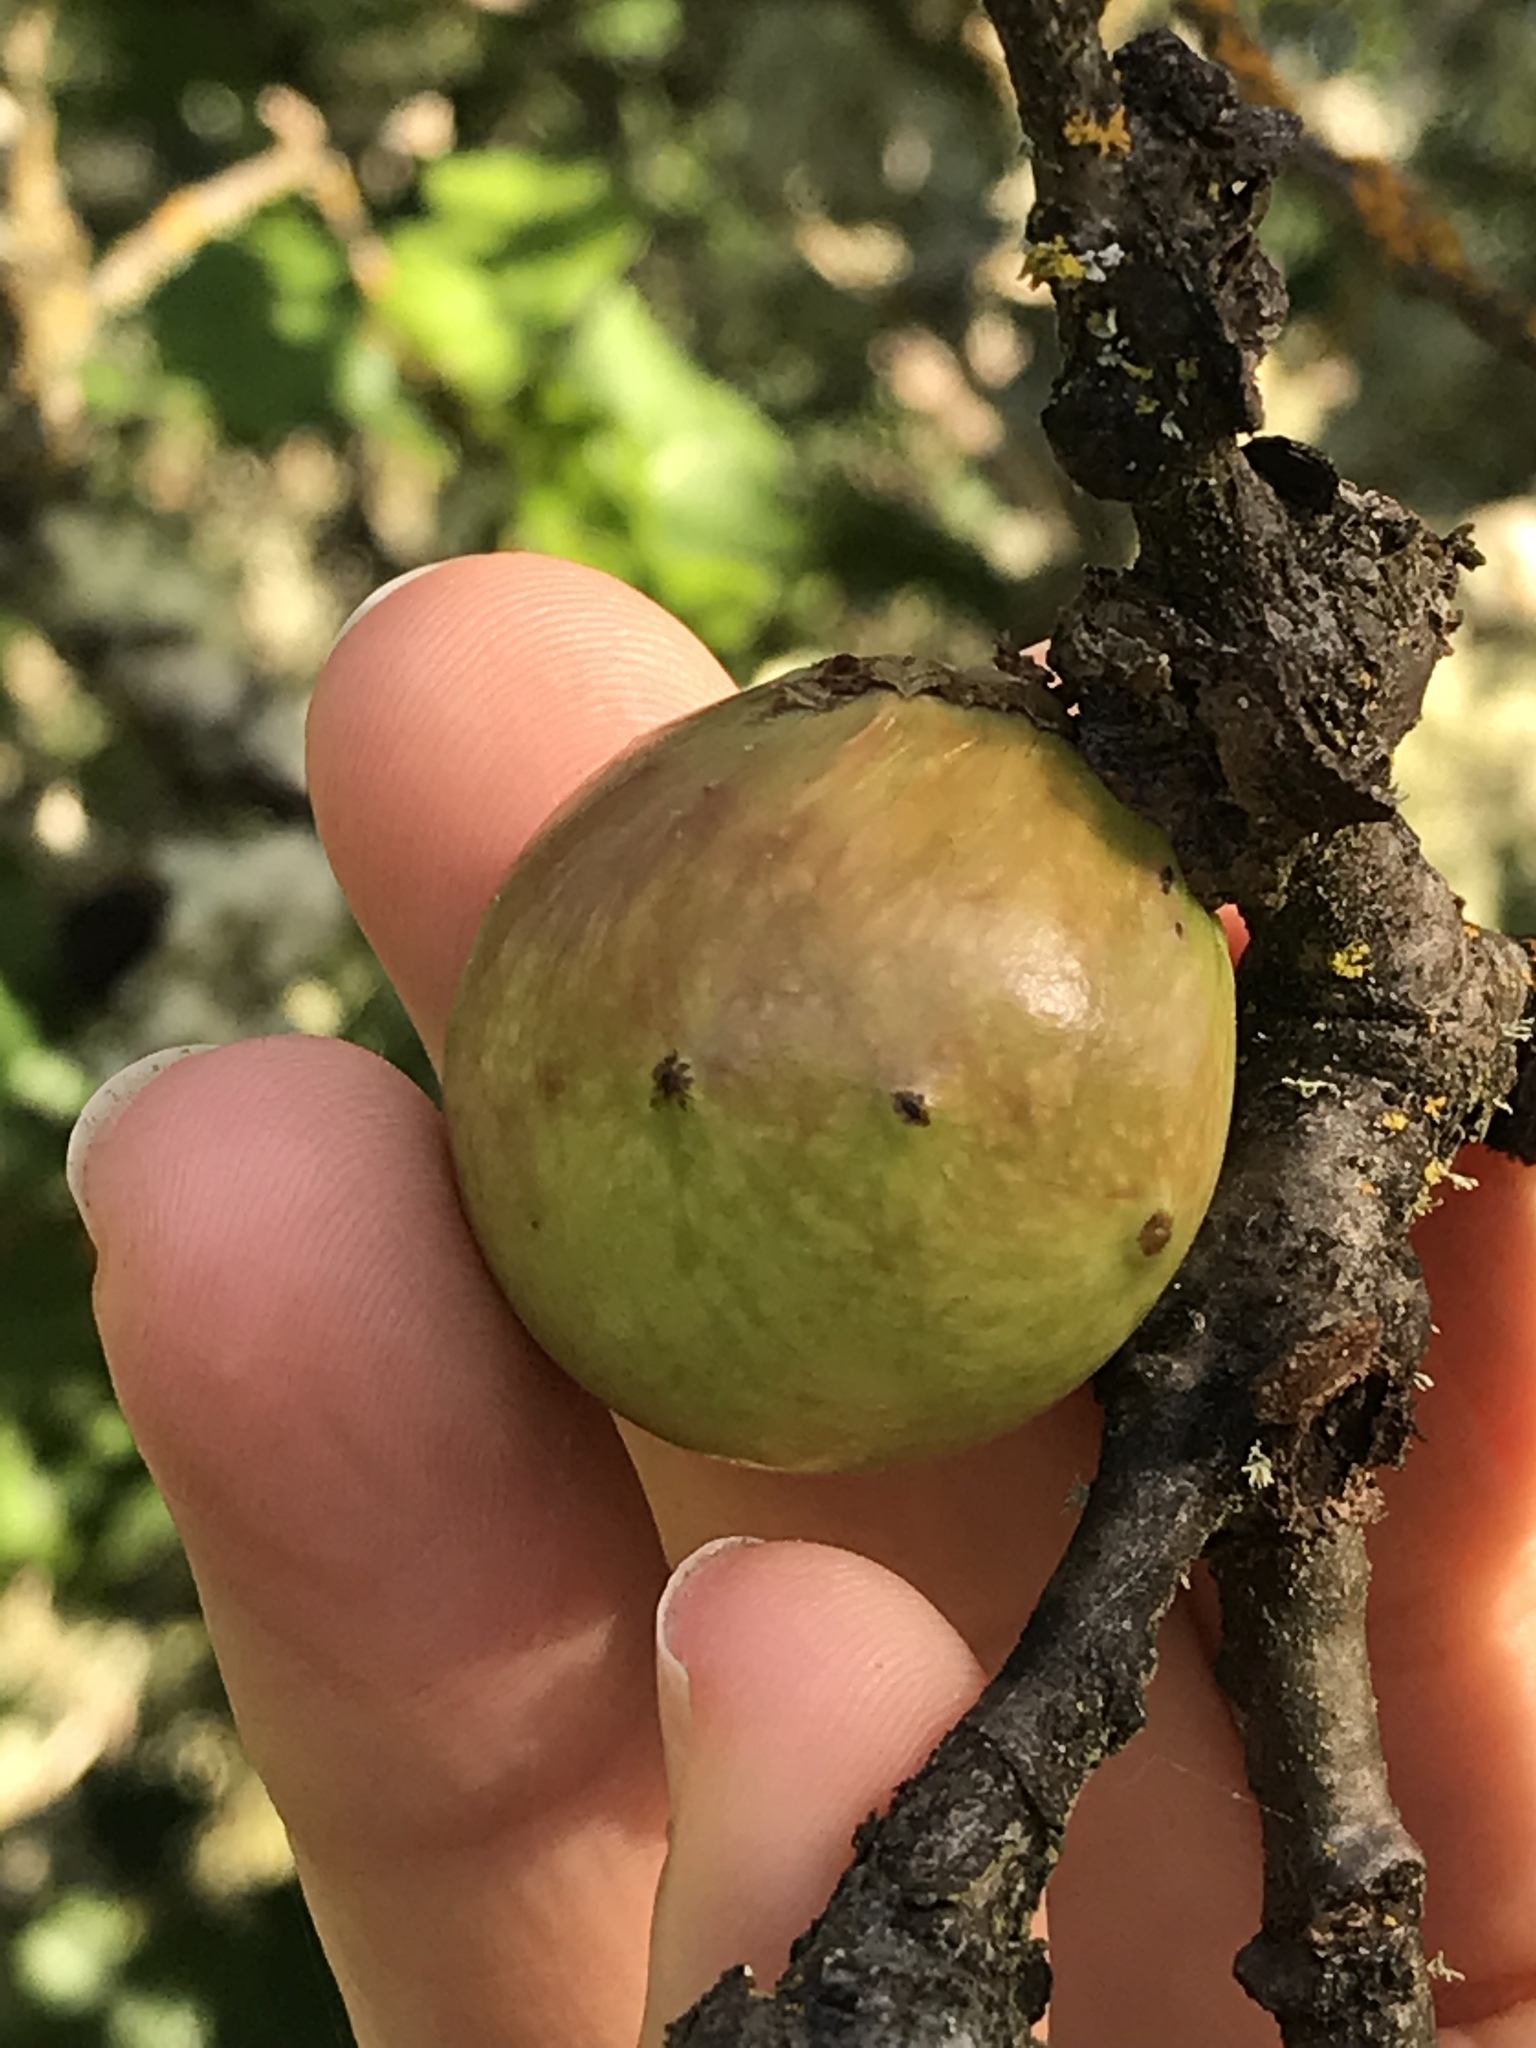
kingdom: Animalia
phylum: Arthropoda
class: Insecta
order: Hymenoptera
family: Cynipidae
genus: Andricus
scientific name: Andricus quercuscalifornicus
